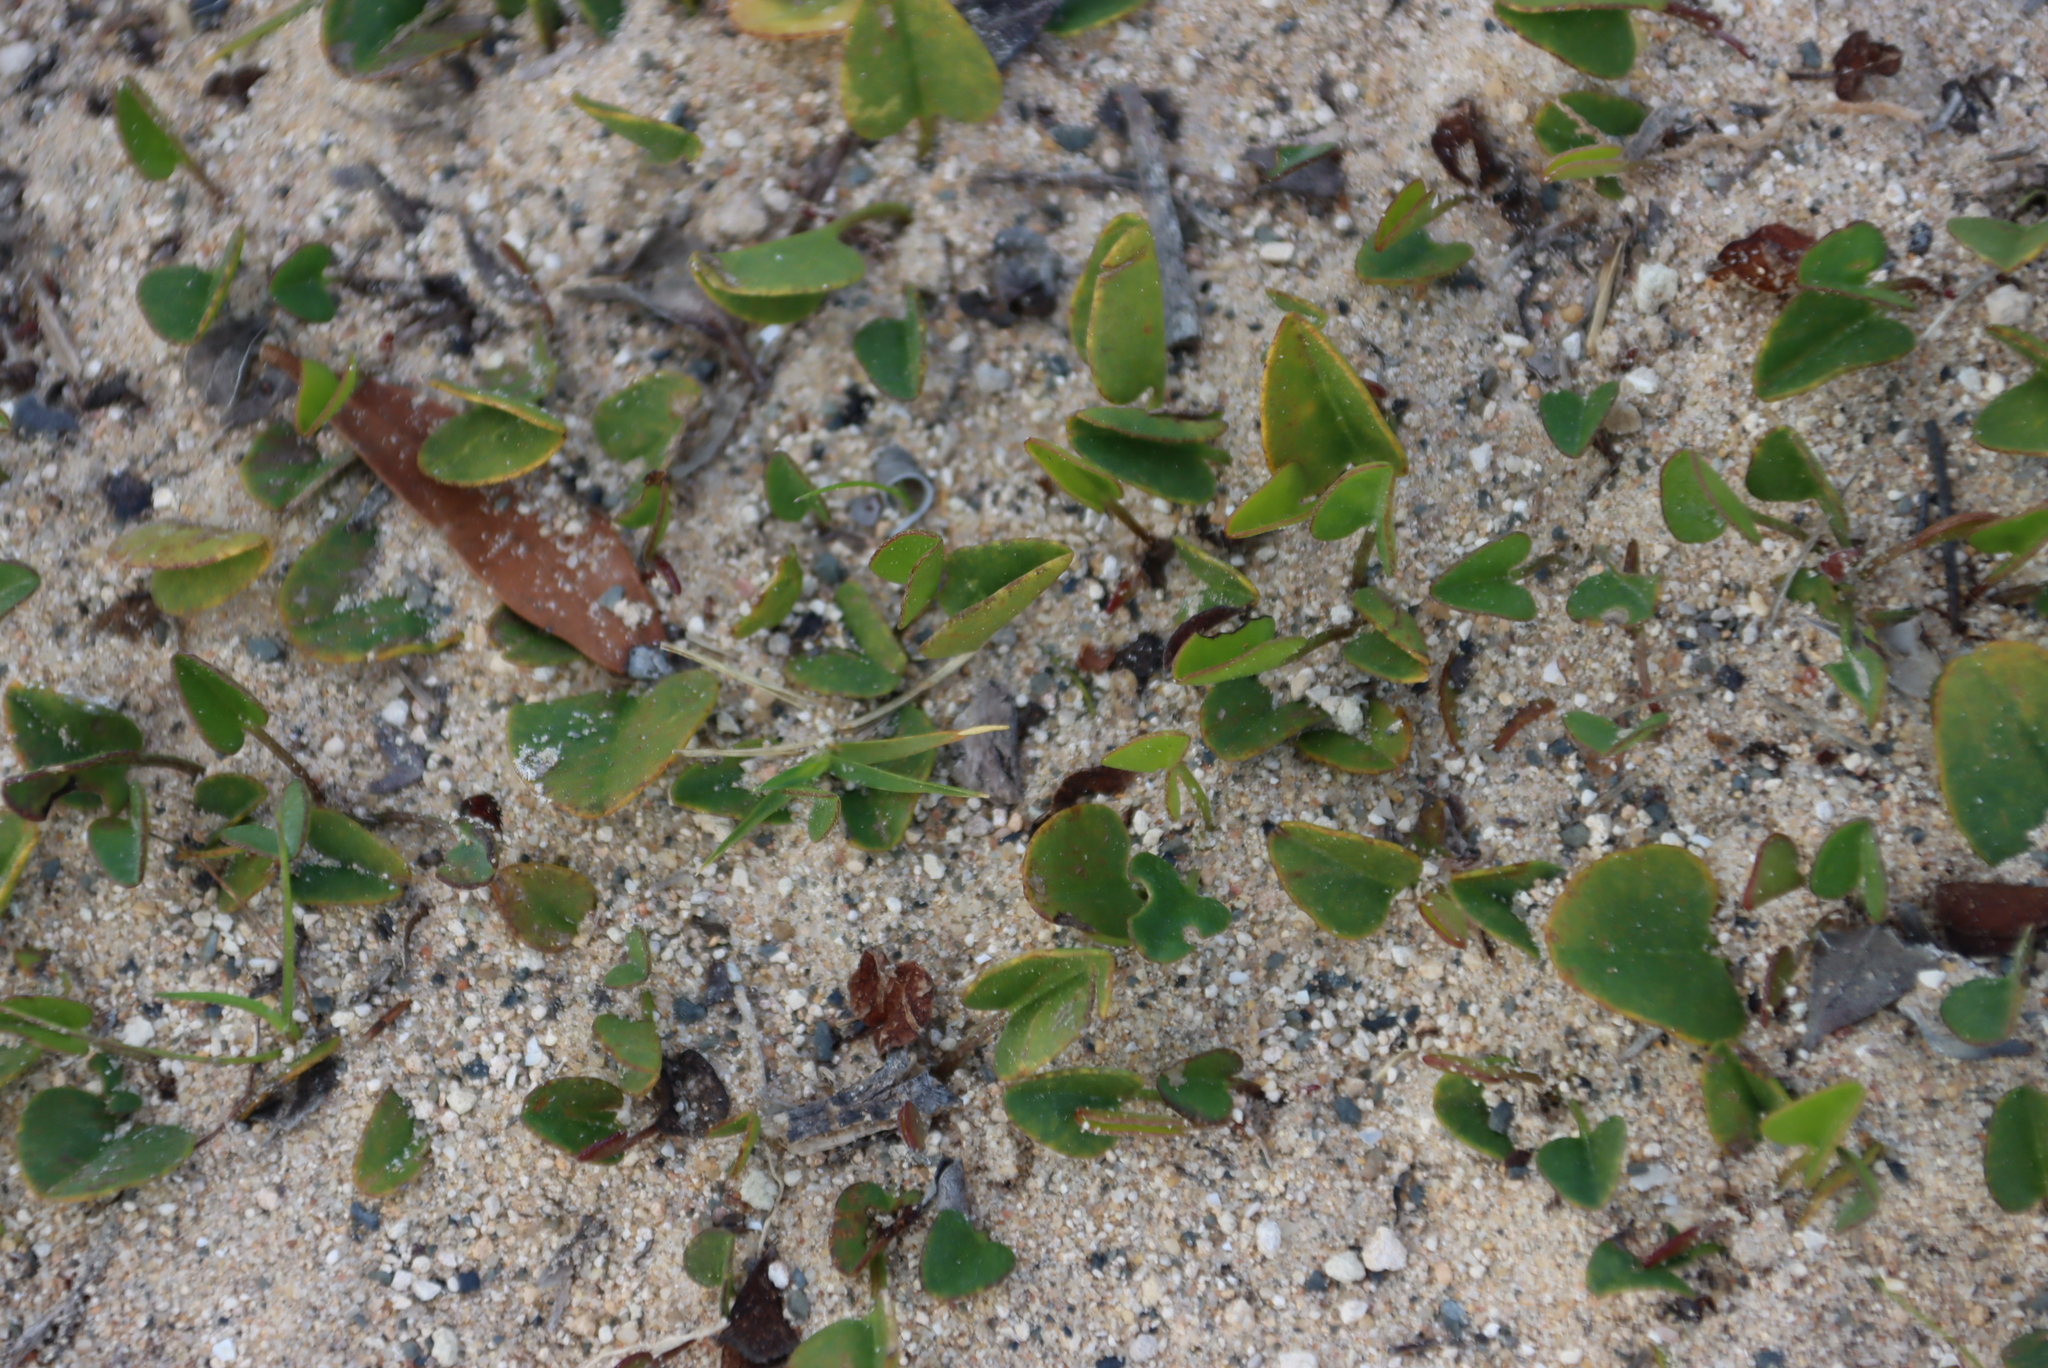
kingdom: Plantae
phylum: Tracheophyta
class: Magnoliopsida
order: Solanales
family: Convolvulaceae
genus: Falkia
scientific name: Falkia repens
